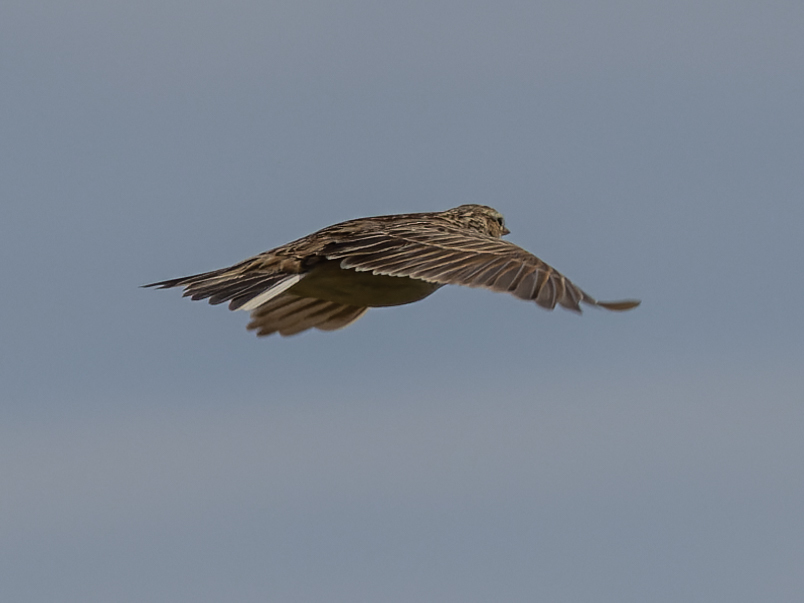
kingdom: Animalia
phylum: Chordata
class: Aves
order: Passeriformes
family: Alaudidae
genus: Alauda
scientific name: Alauda arvensis
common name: Eurasian skylark
